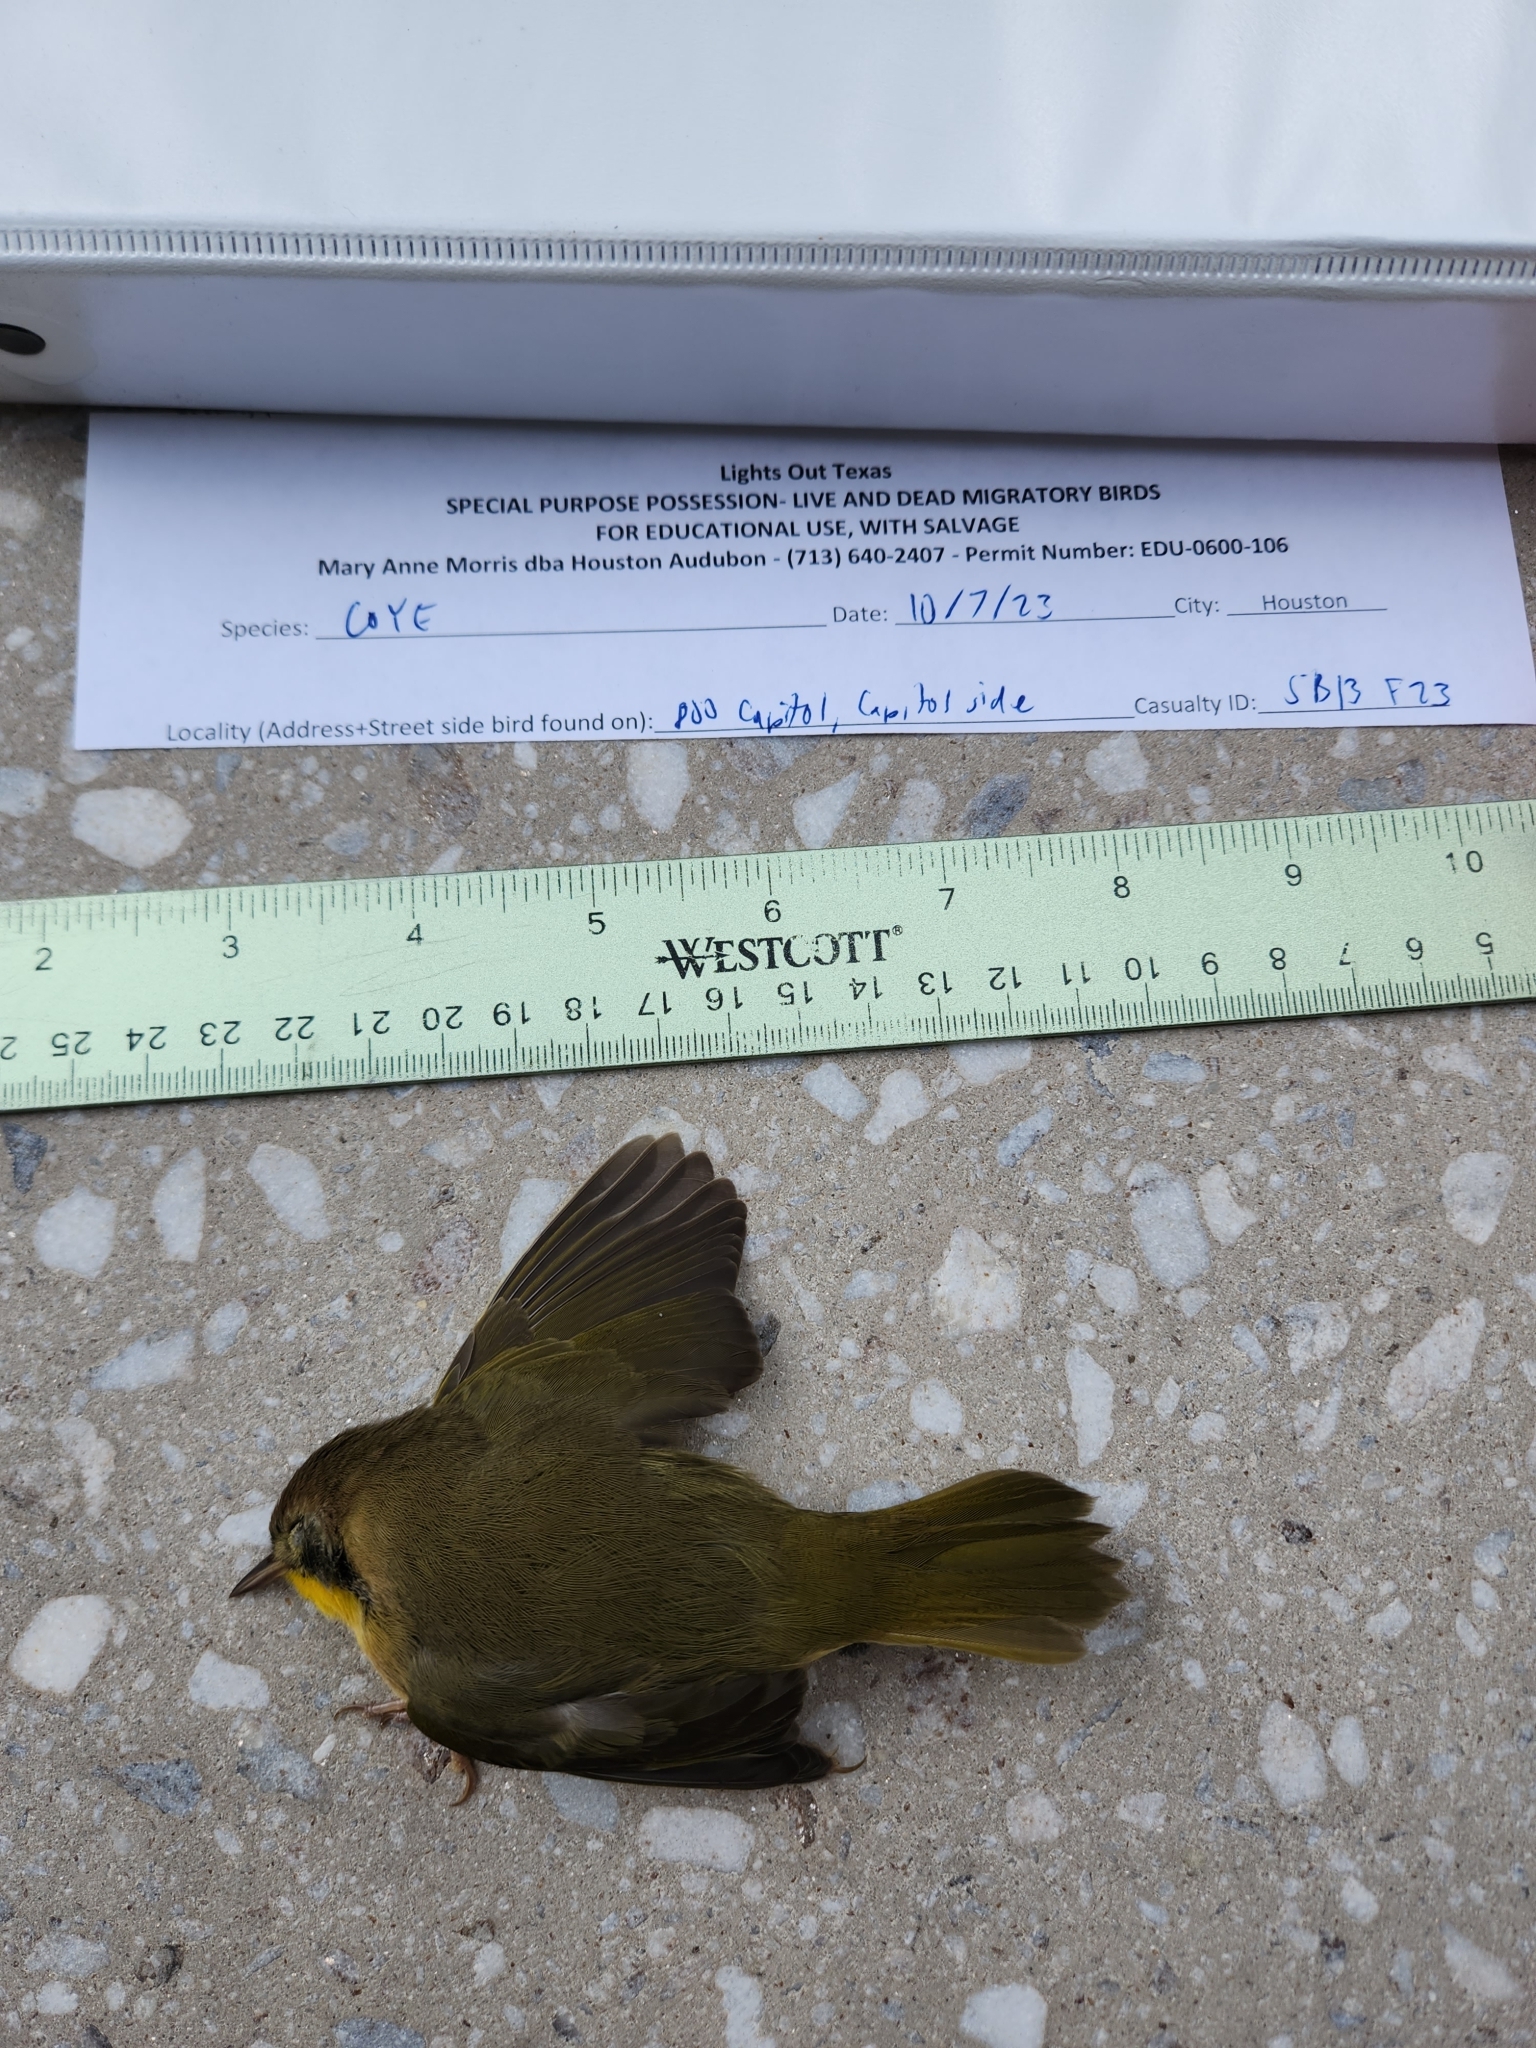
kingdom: Animalia
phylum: Chordata
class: Aves
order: Passeriformes
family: Parulidae
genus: Geothlypis
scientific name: Geothlypis trichas
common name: Common yellowthroat
